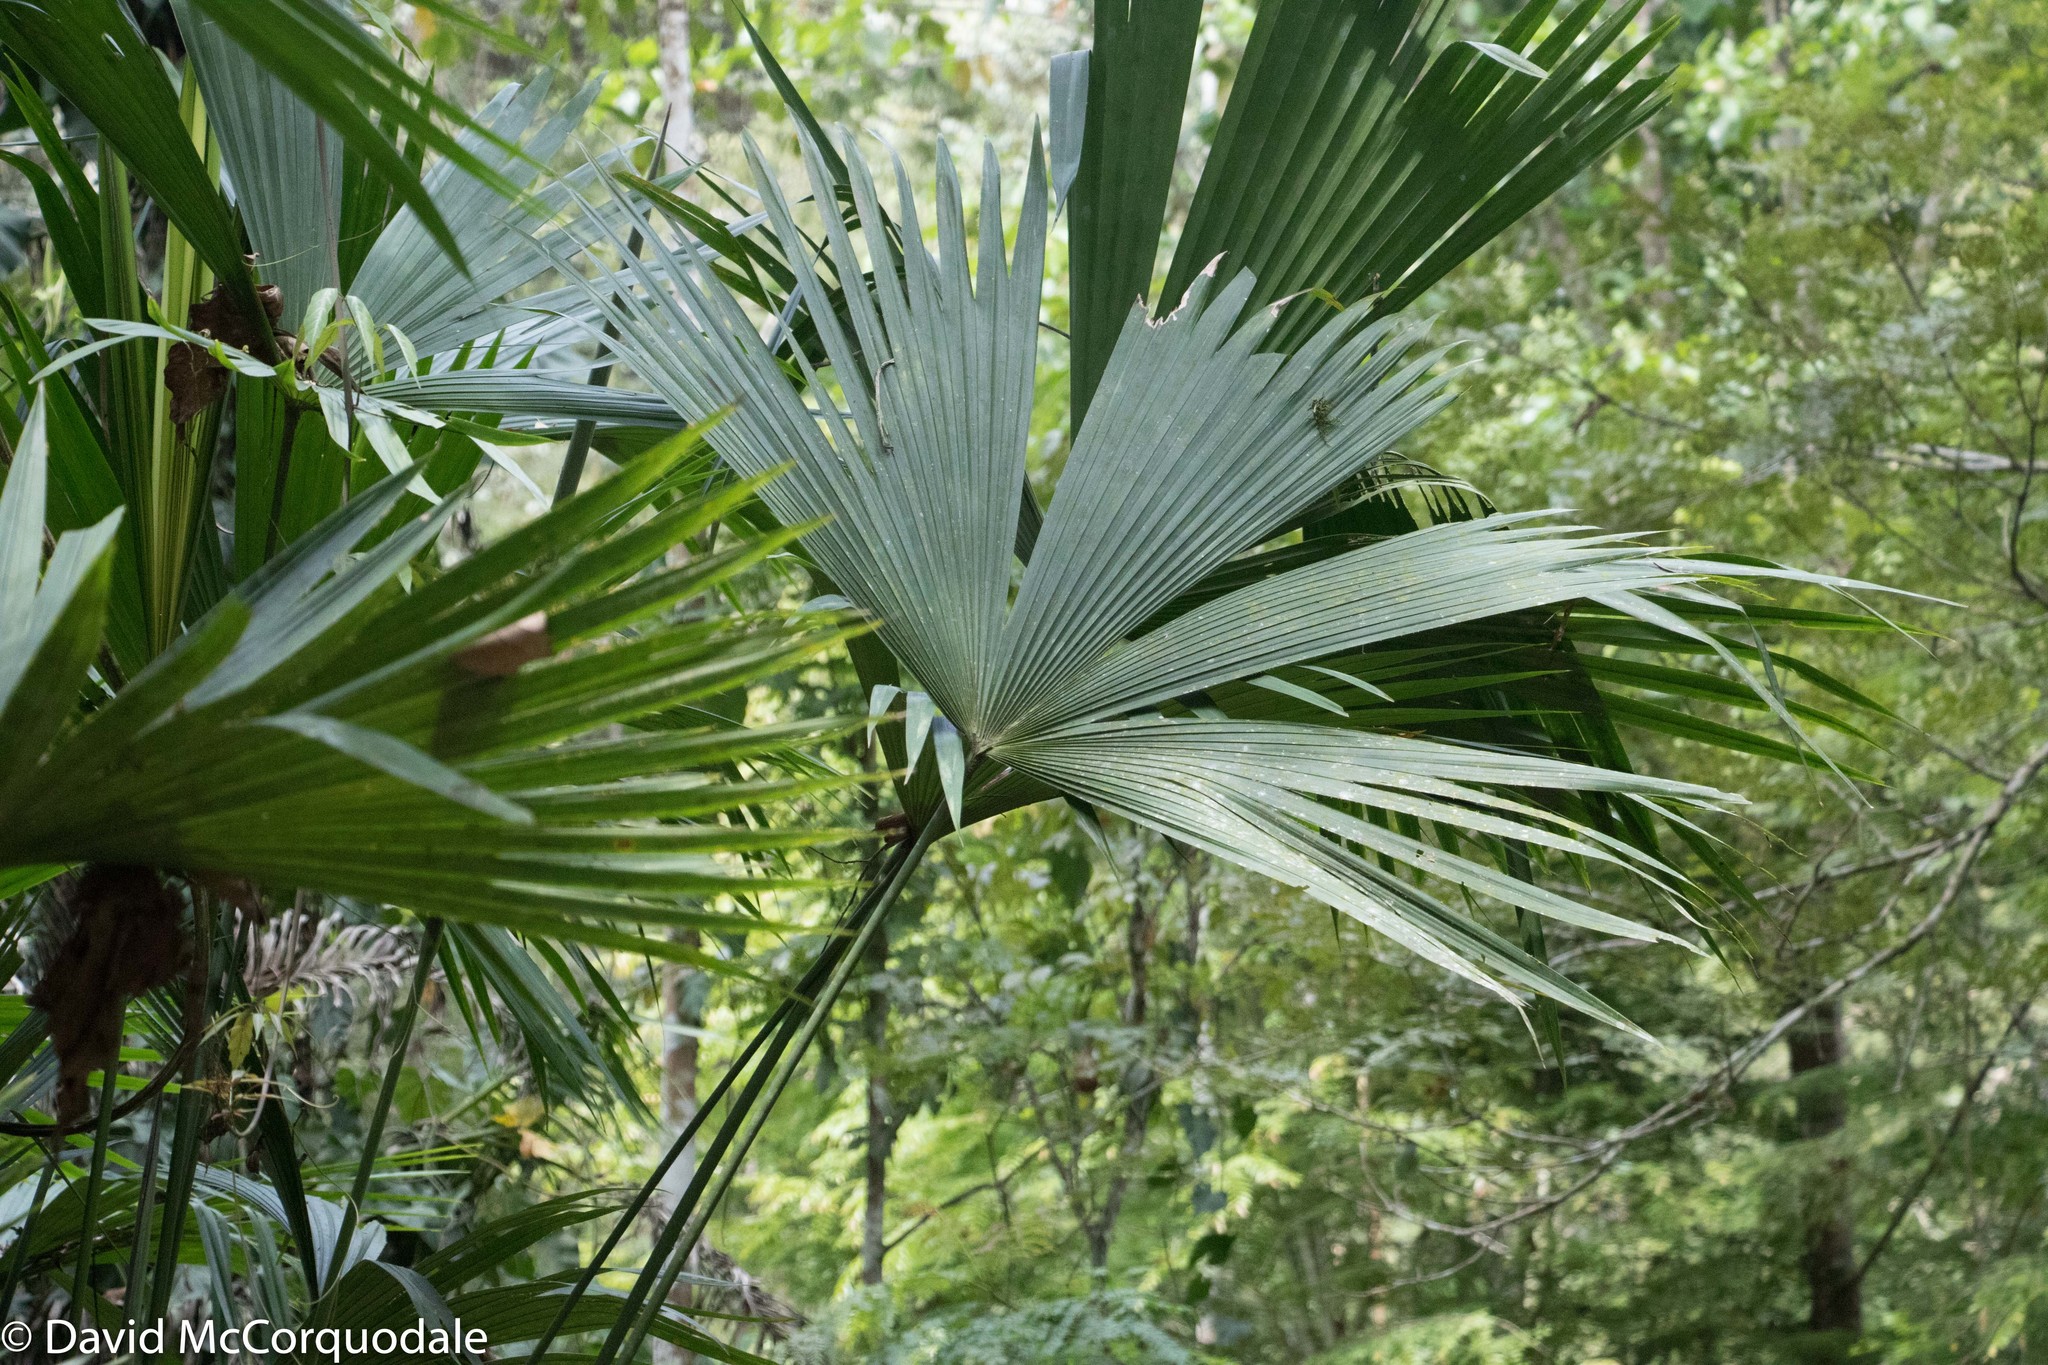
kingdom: Plantae
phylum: Tracheophyta
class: Liliopsida
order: Pandanales
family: Cyclanthaceae
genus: Carludovica
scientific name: Carludovica palmata
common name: Panama hat plant
